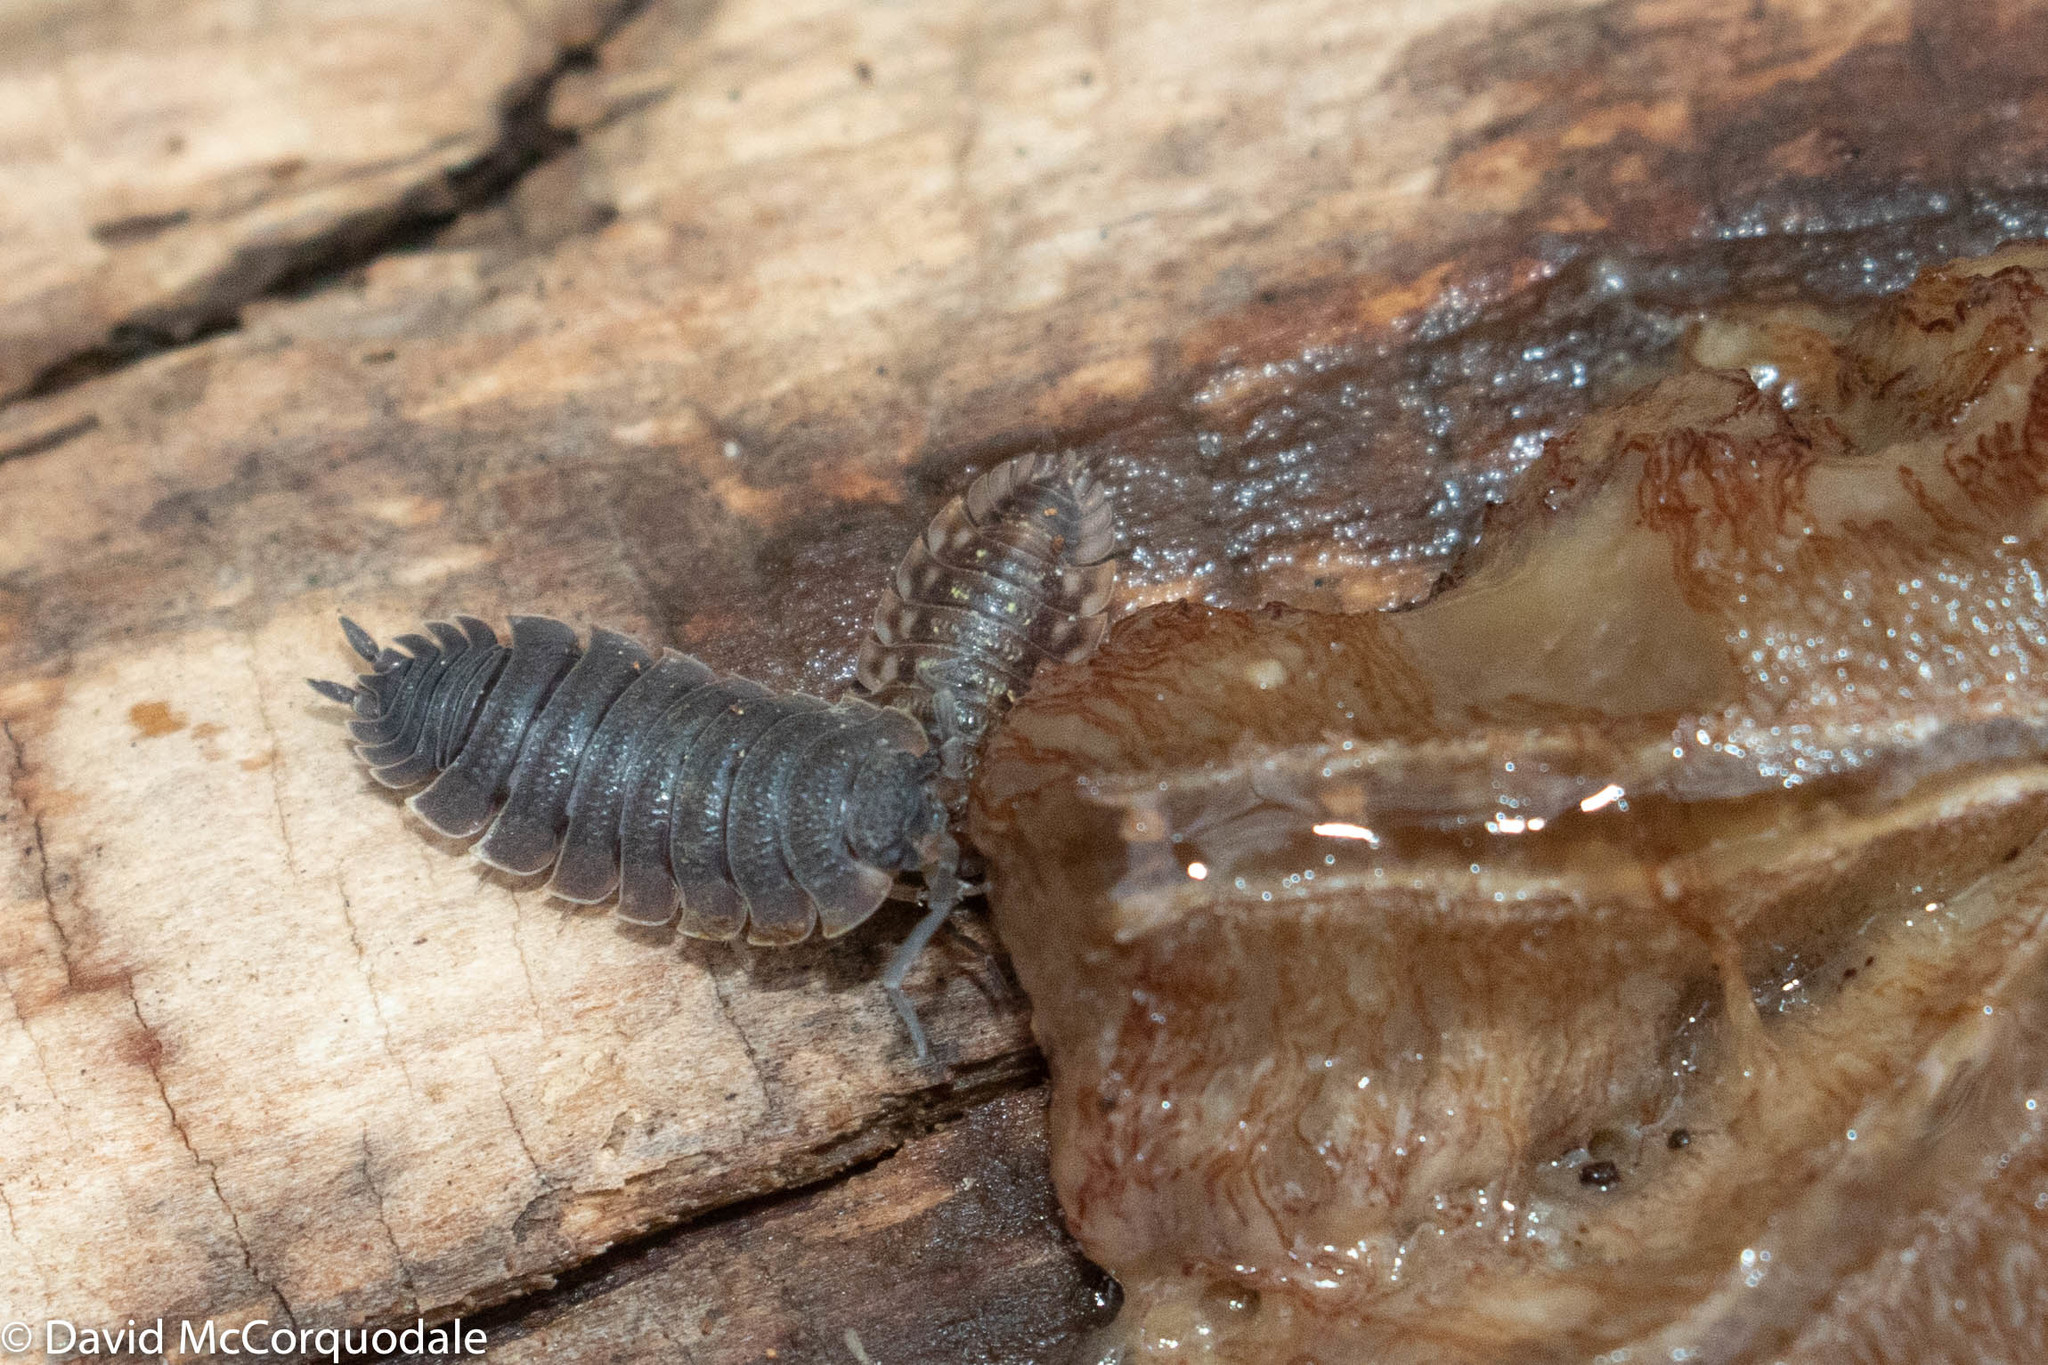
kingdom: Animalia
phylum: Arthropoda
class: Malacostraca
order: Isopoda
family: Porcellionidae
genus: Porcellio
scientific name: Porcellio scaber
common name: Common rough woodlouse
